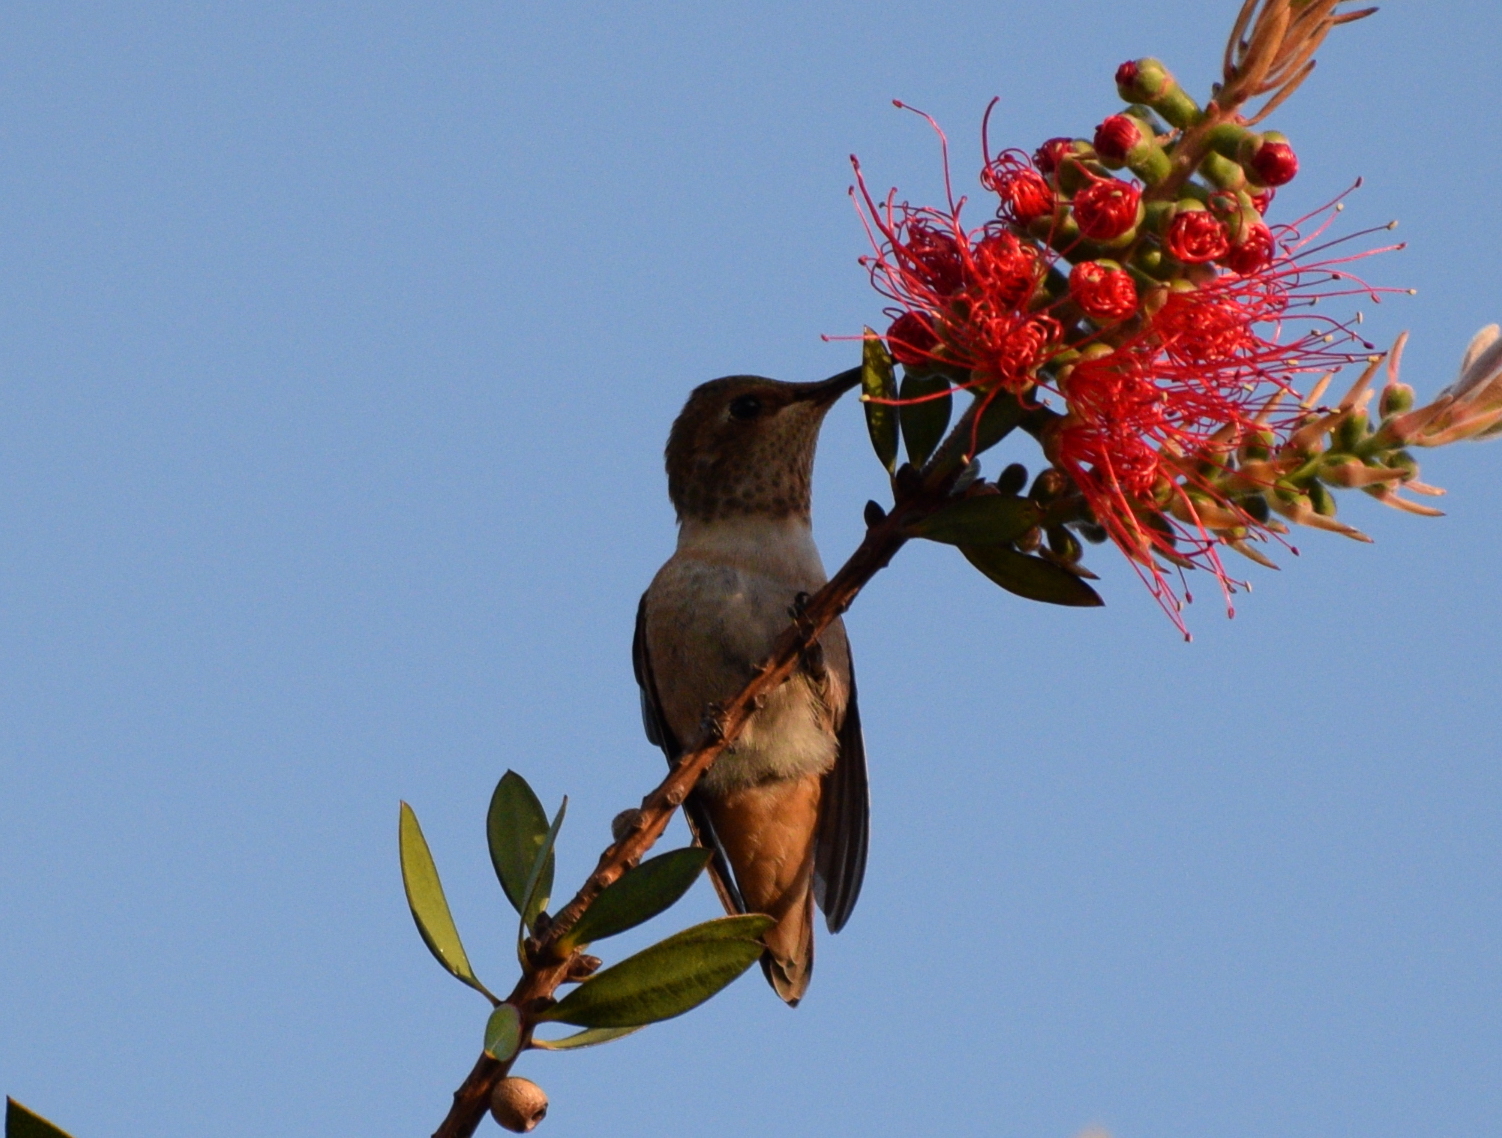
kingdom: Animalia
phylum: Chordata
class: Aves
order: Apodiformes
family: Trochilidae
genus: Selasphorus
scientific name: Selasphorus
